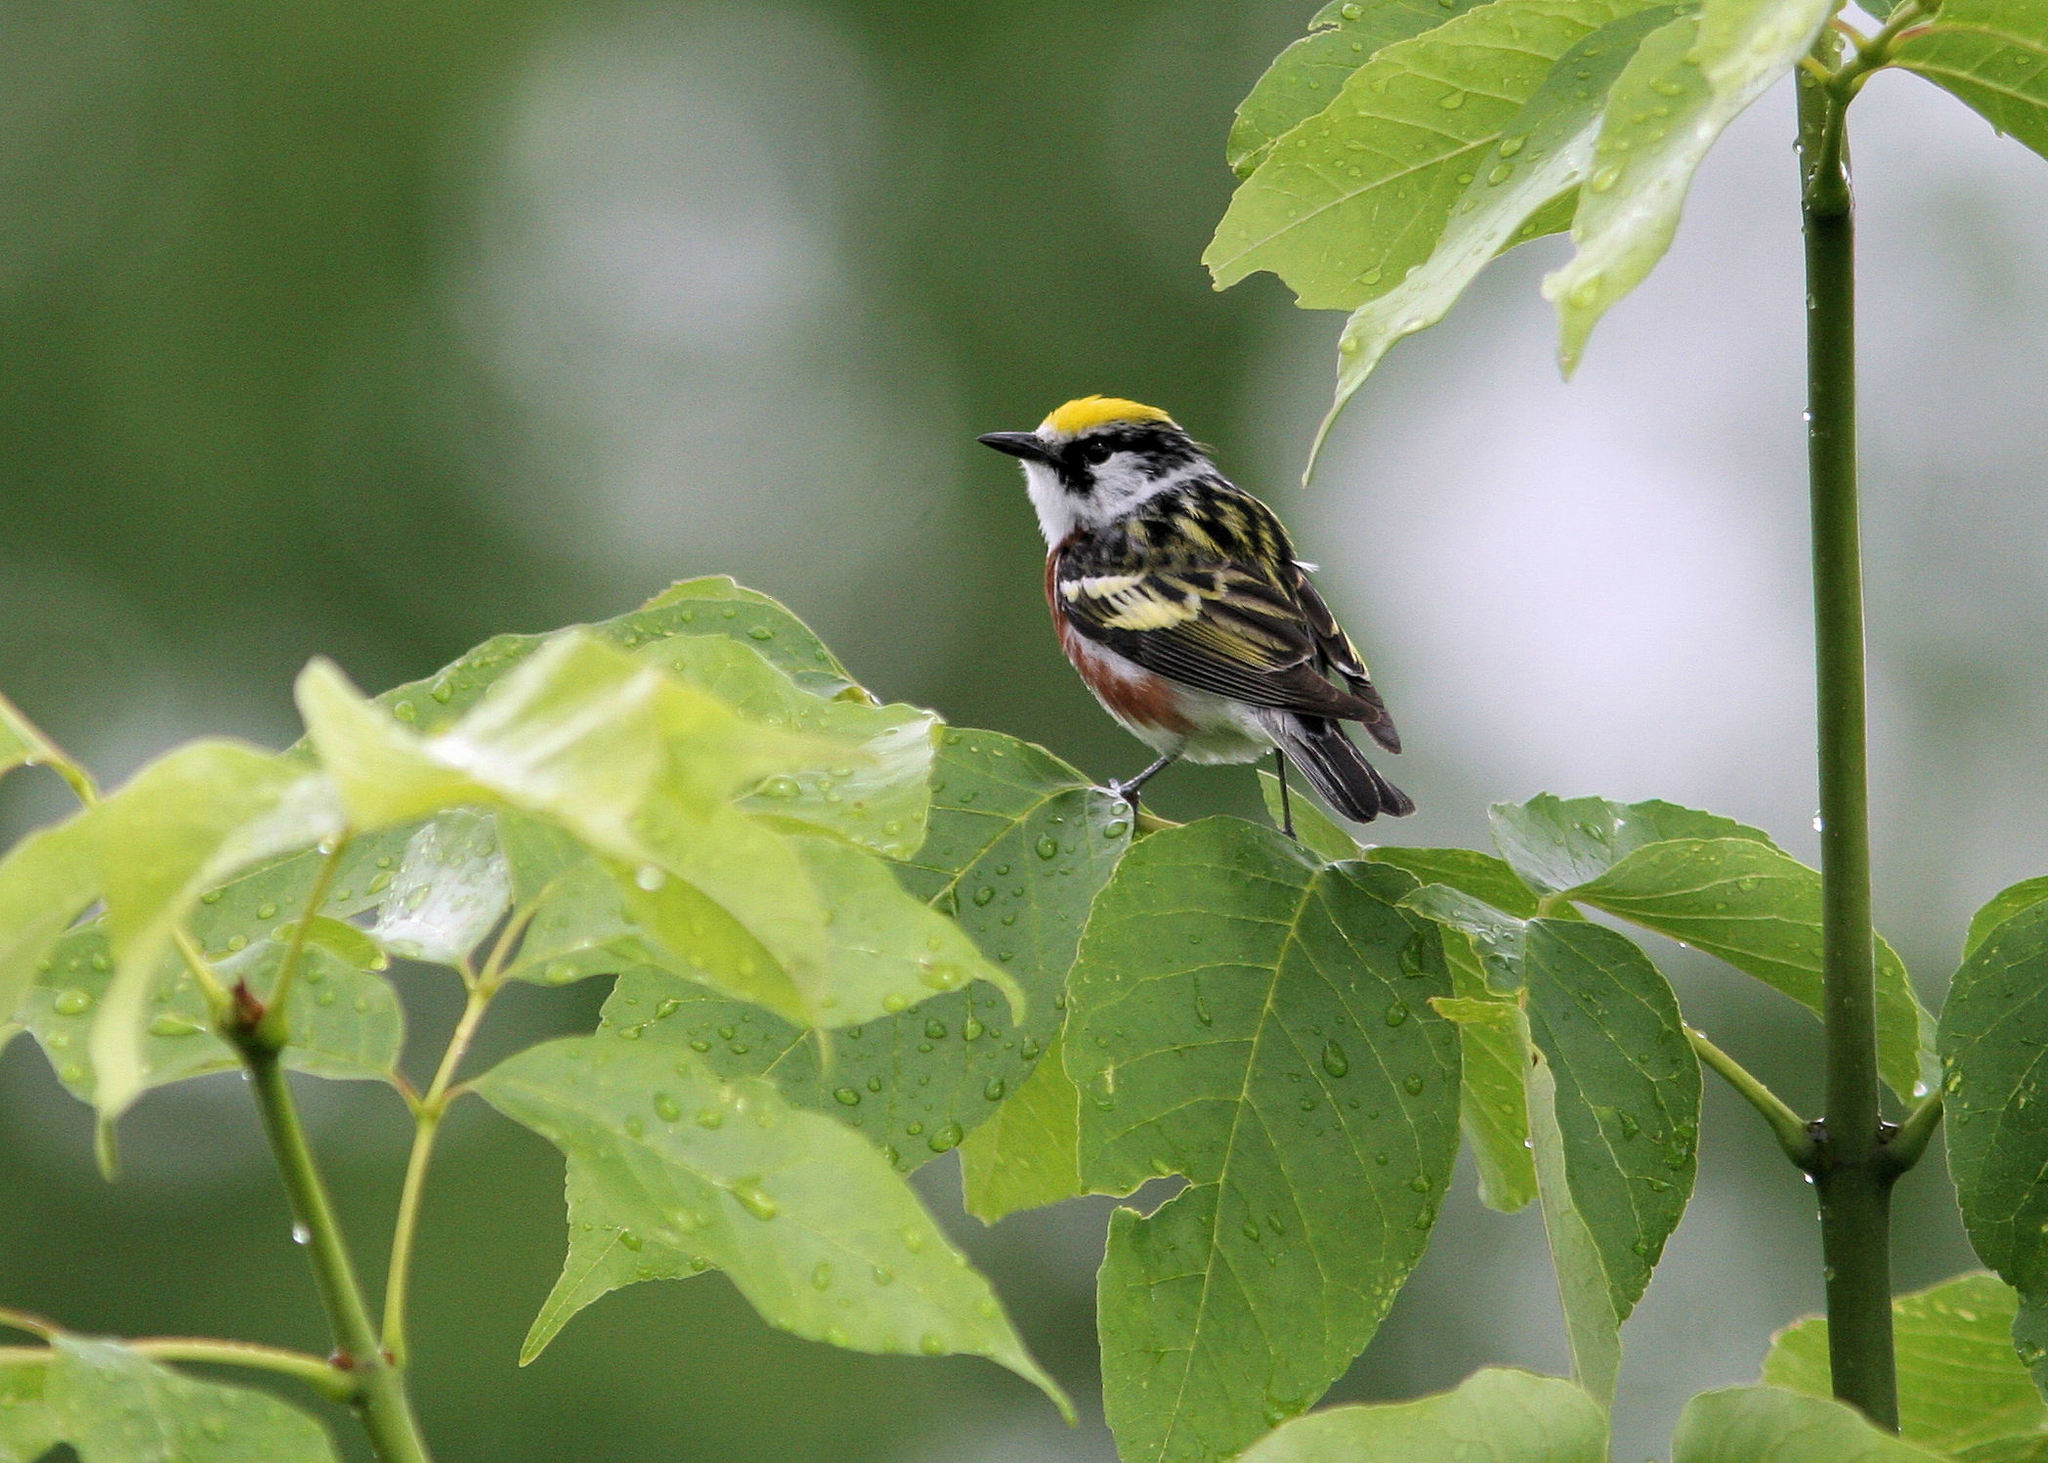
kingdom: Animalia
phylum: Chordata
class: Aves
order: Passeriformes
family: Parulidae
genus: Setophaga
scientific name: Setophaga pensylvanica
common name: Chestnut-sided warbler
